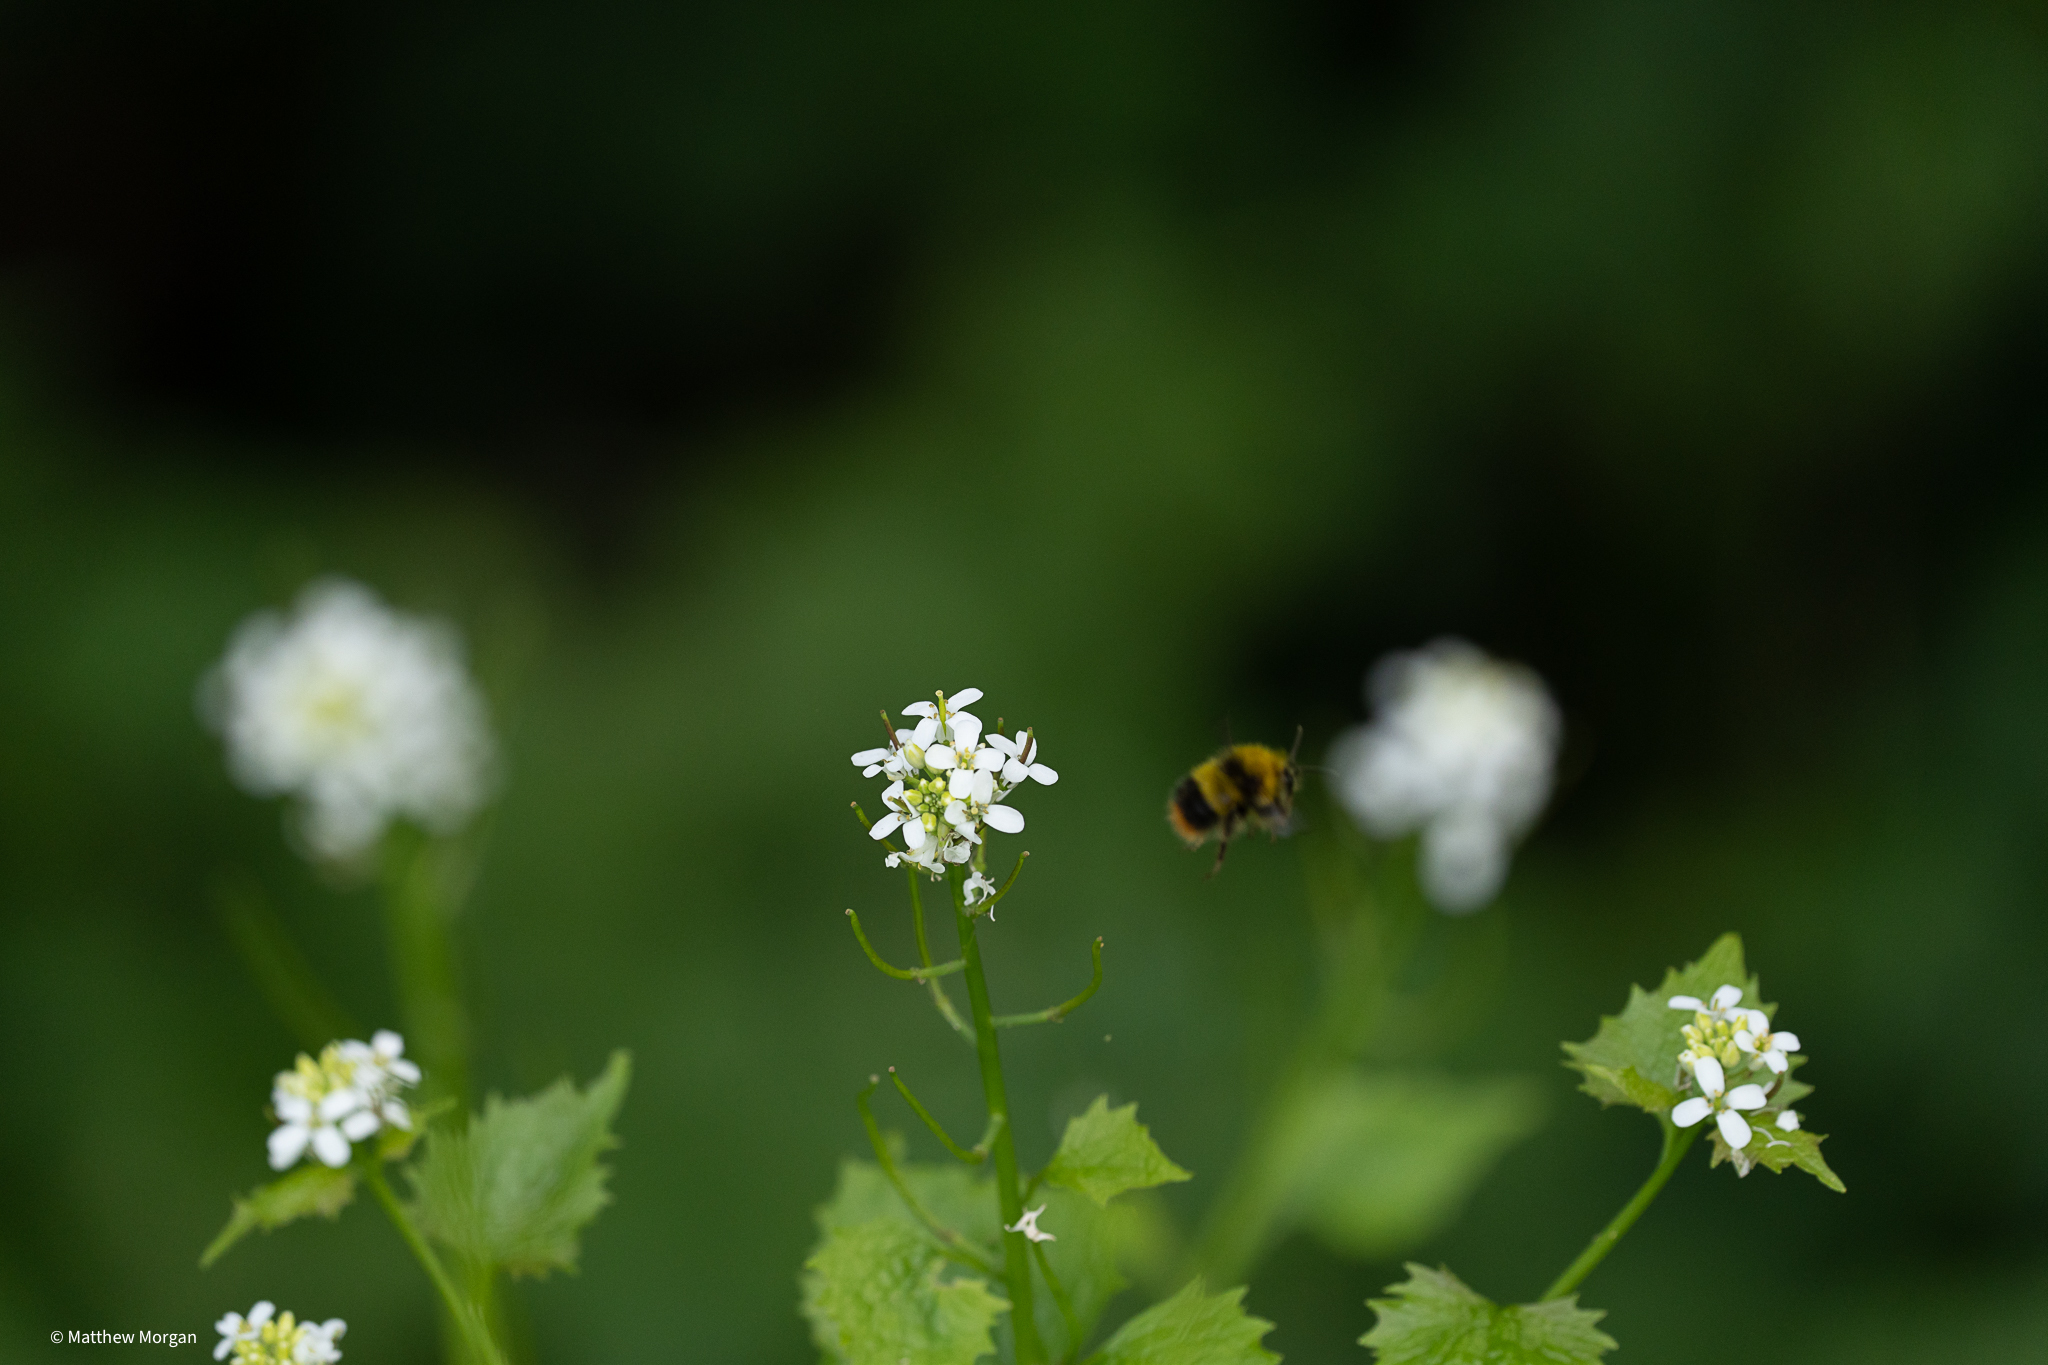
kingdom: Animalia
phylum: Arthropoda
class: Insecta
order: Hymenoptera
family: Apidae
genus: Bombus
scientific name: Bombus pratorum
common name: Early humble-bee
